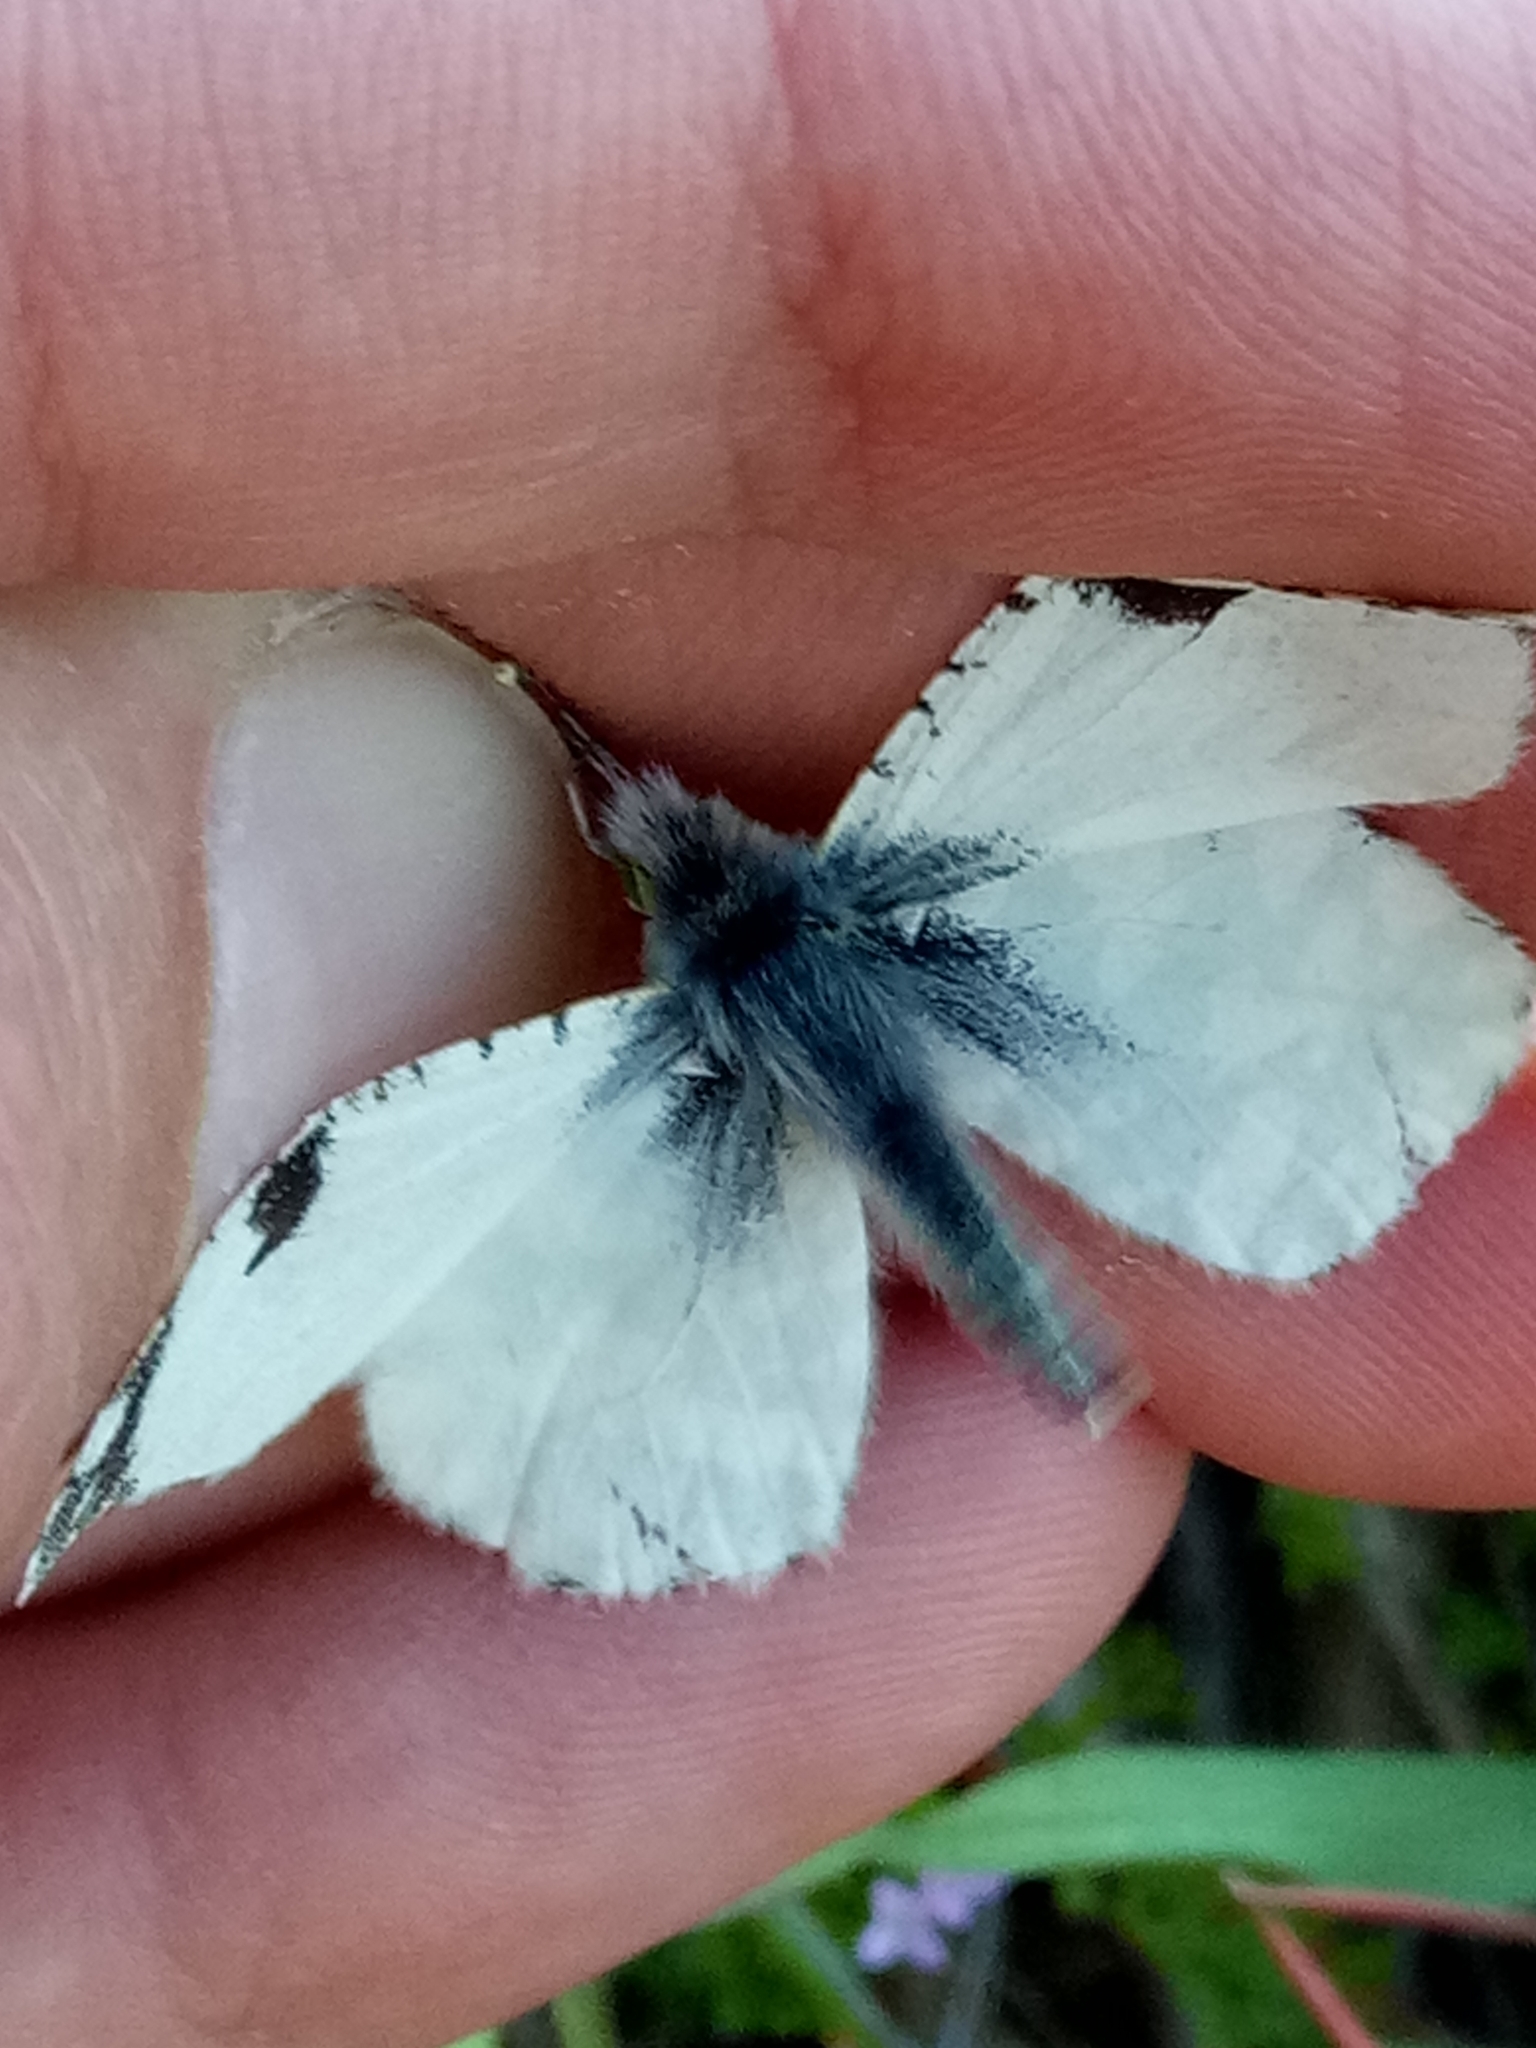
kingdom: Animalia
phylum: Arthropoda
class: Insecta
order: Lepidoptera
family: Pieridae
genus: Euchloe
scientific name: Euchloe crameri
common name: Western dappled white
